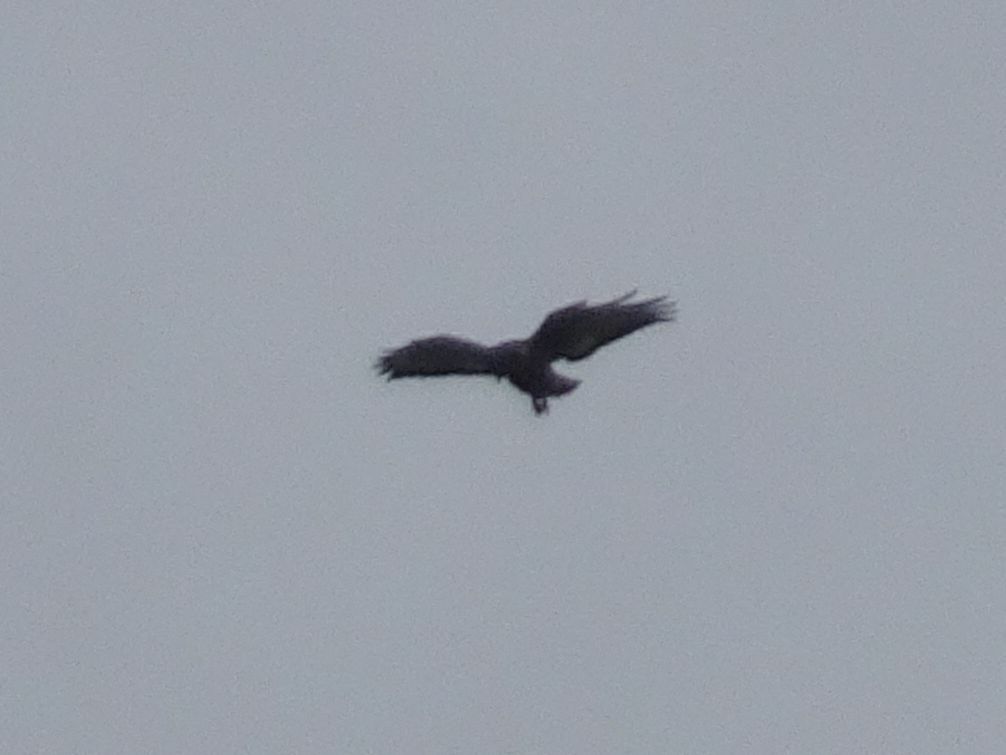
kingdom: Animalia
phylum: Chordata
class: Aves
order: Passeriformes
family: Fringillidae
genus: Serinus
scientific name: Serinus canicollis
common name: Cape canary
